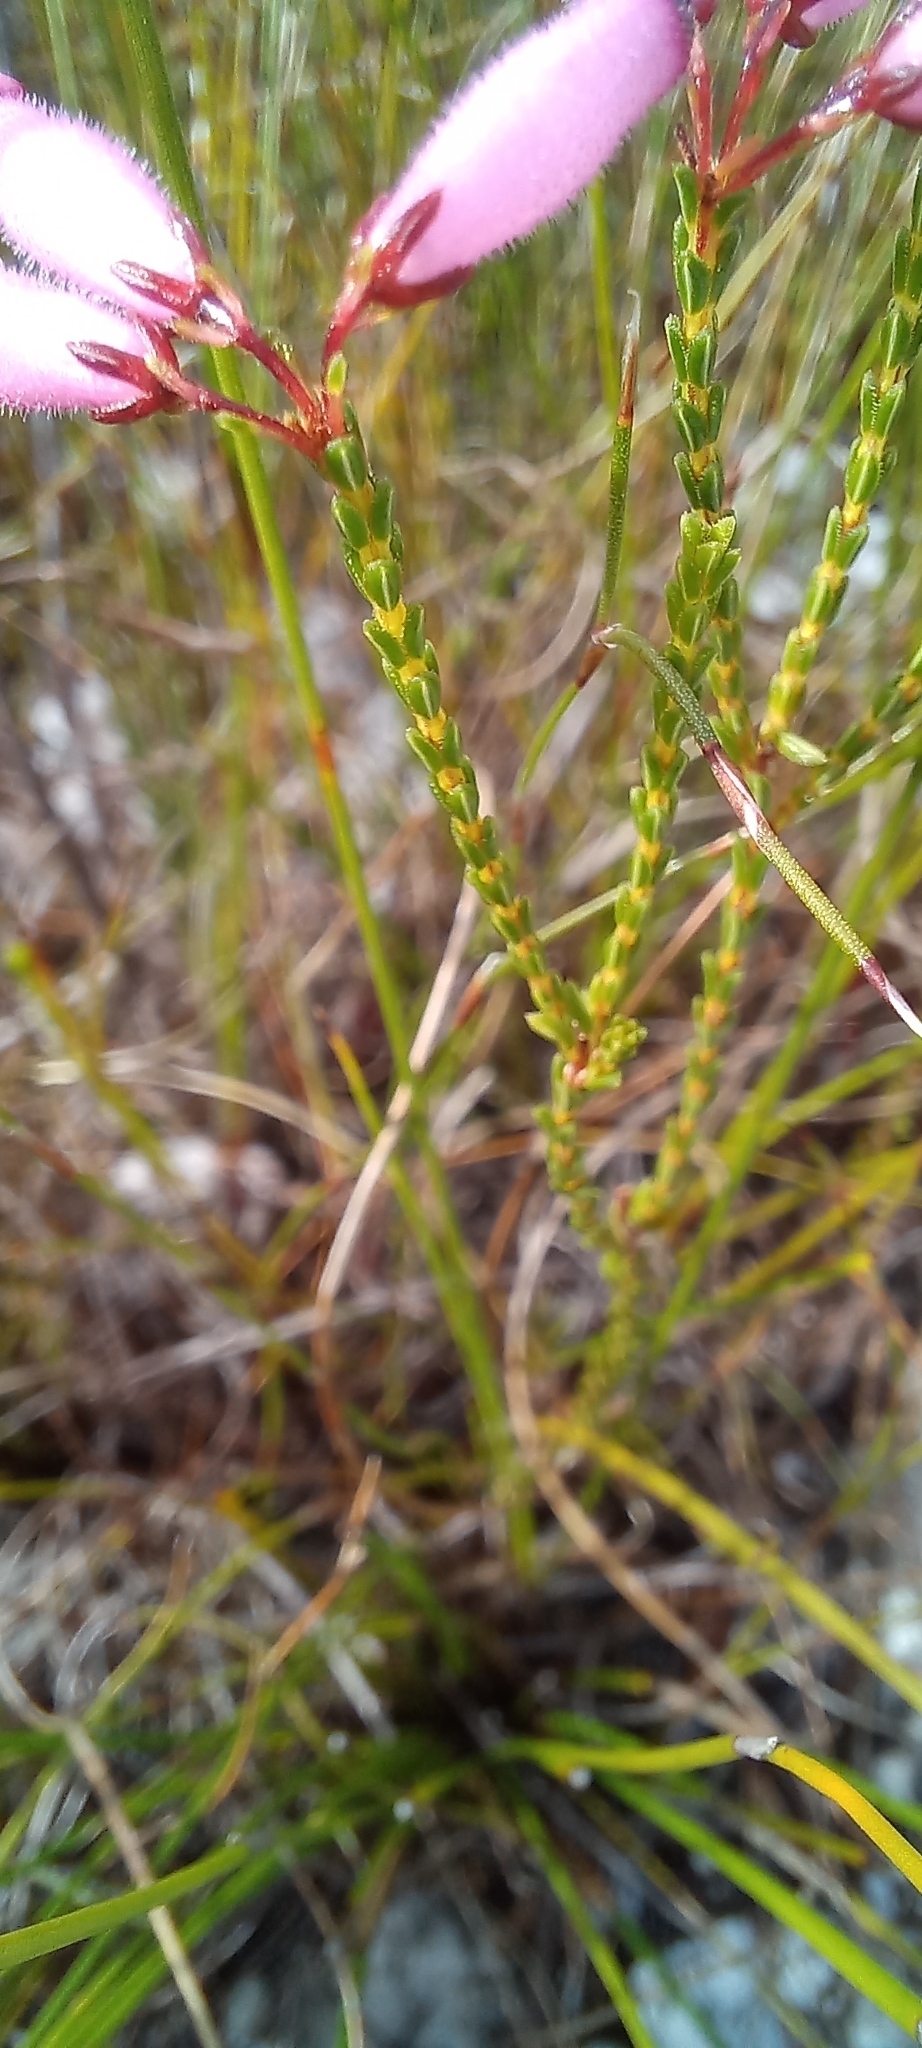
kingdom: Plantae
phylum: Tracheophyta
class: Magnoliopsida
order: Ericales
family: Ericaceae
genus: Erica
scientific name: Erica cristata
